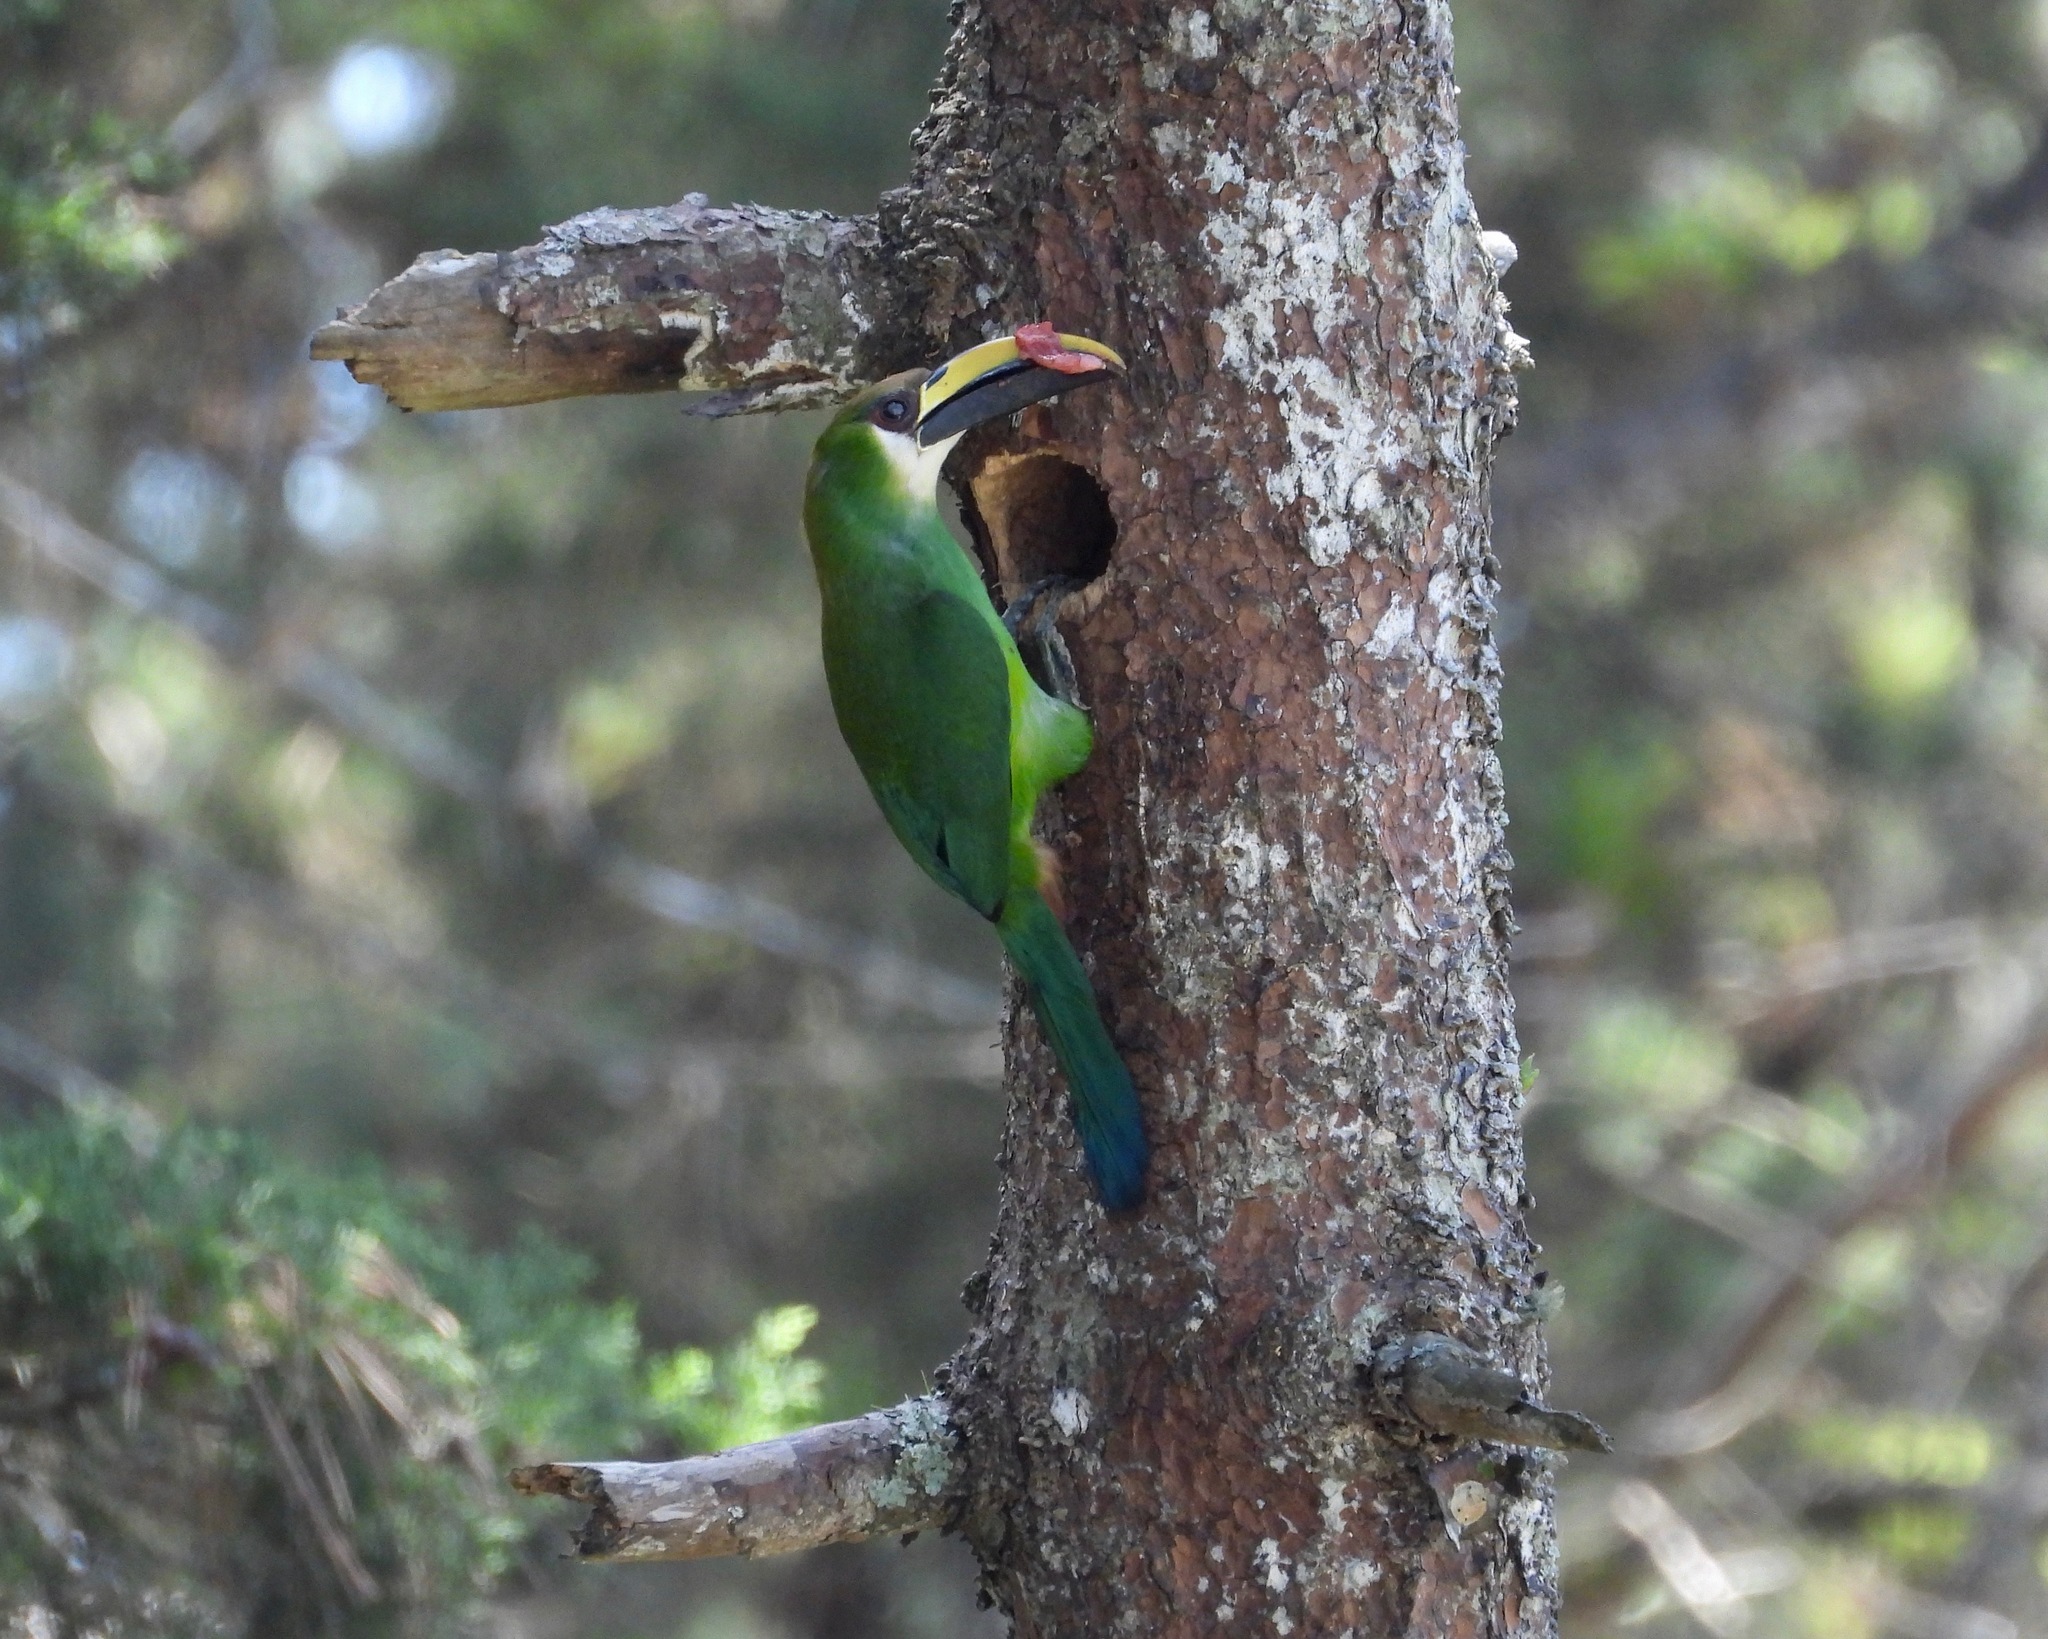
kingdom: Animalia
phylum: Chordata
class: Aves
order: Piciformes
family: Ramphastidae
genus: Aulacorhynchus
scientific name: Aulacorhynchus prasinus
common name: Emerald toucanet
